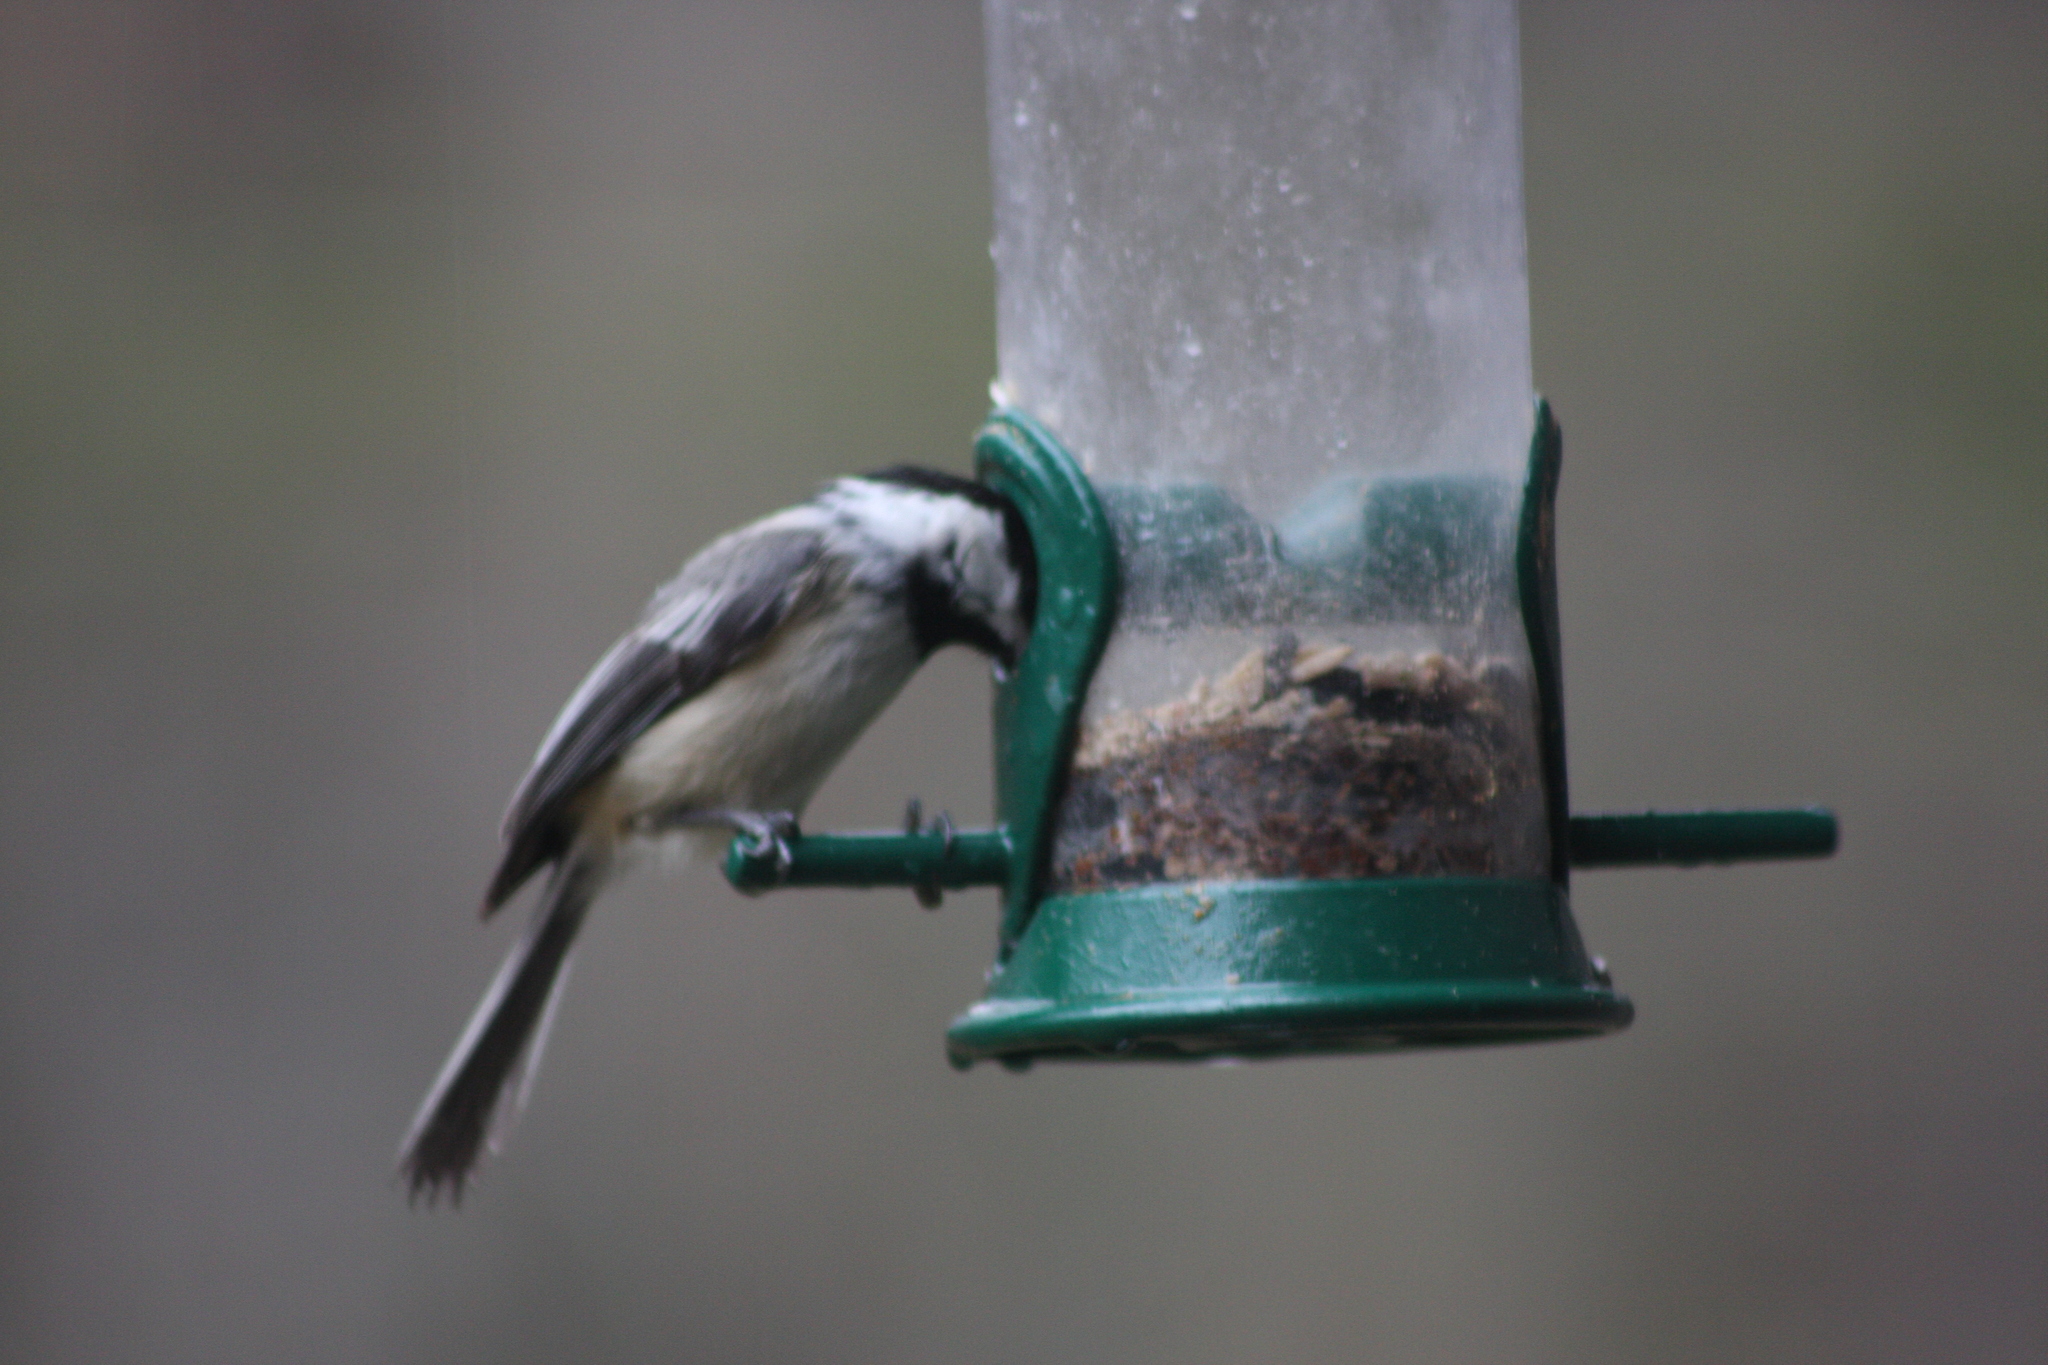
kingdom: Animalia
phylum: Chordata
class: Aves
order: Passeriformes
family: Paridae
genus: Poecile
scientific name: Poecile atricapillus
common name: Black-capped chickadee
